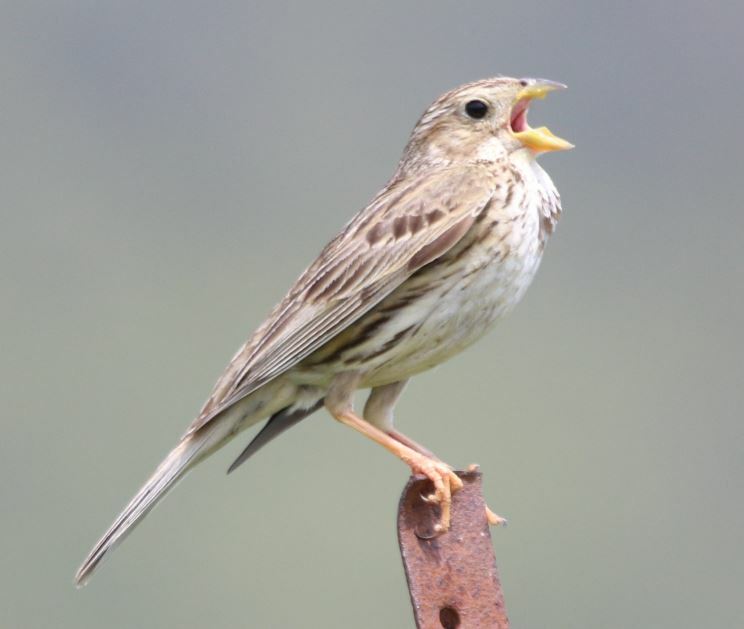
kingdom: Animalia
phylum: Chordata
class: Aves
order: Passeriformes
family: Emberizidae
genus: Emberiza
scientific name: Emberiza calandra
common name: Corn bunting
